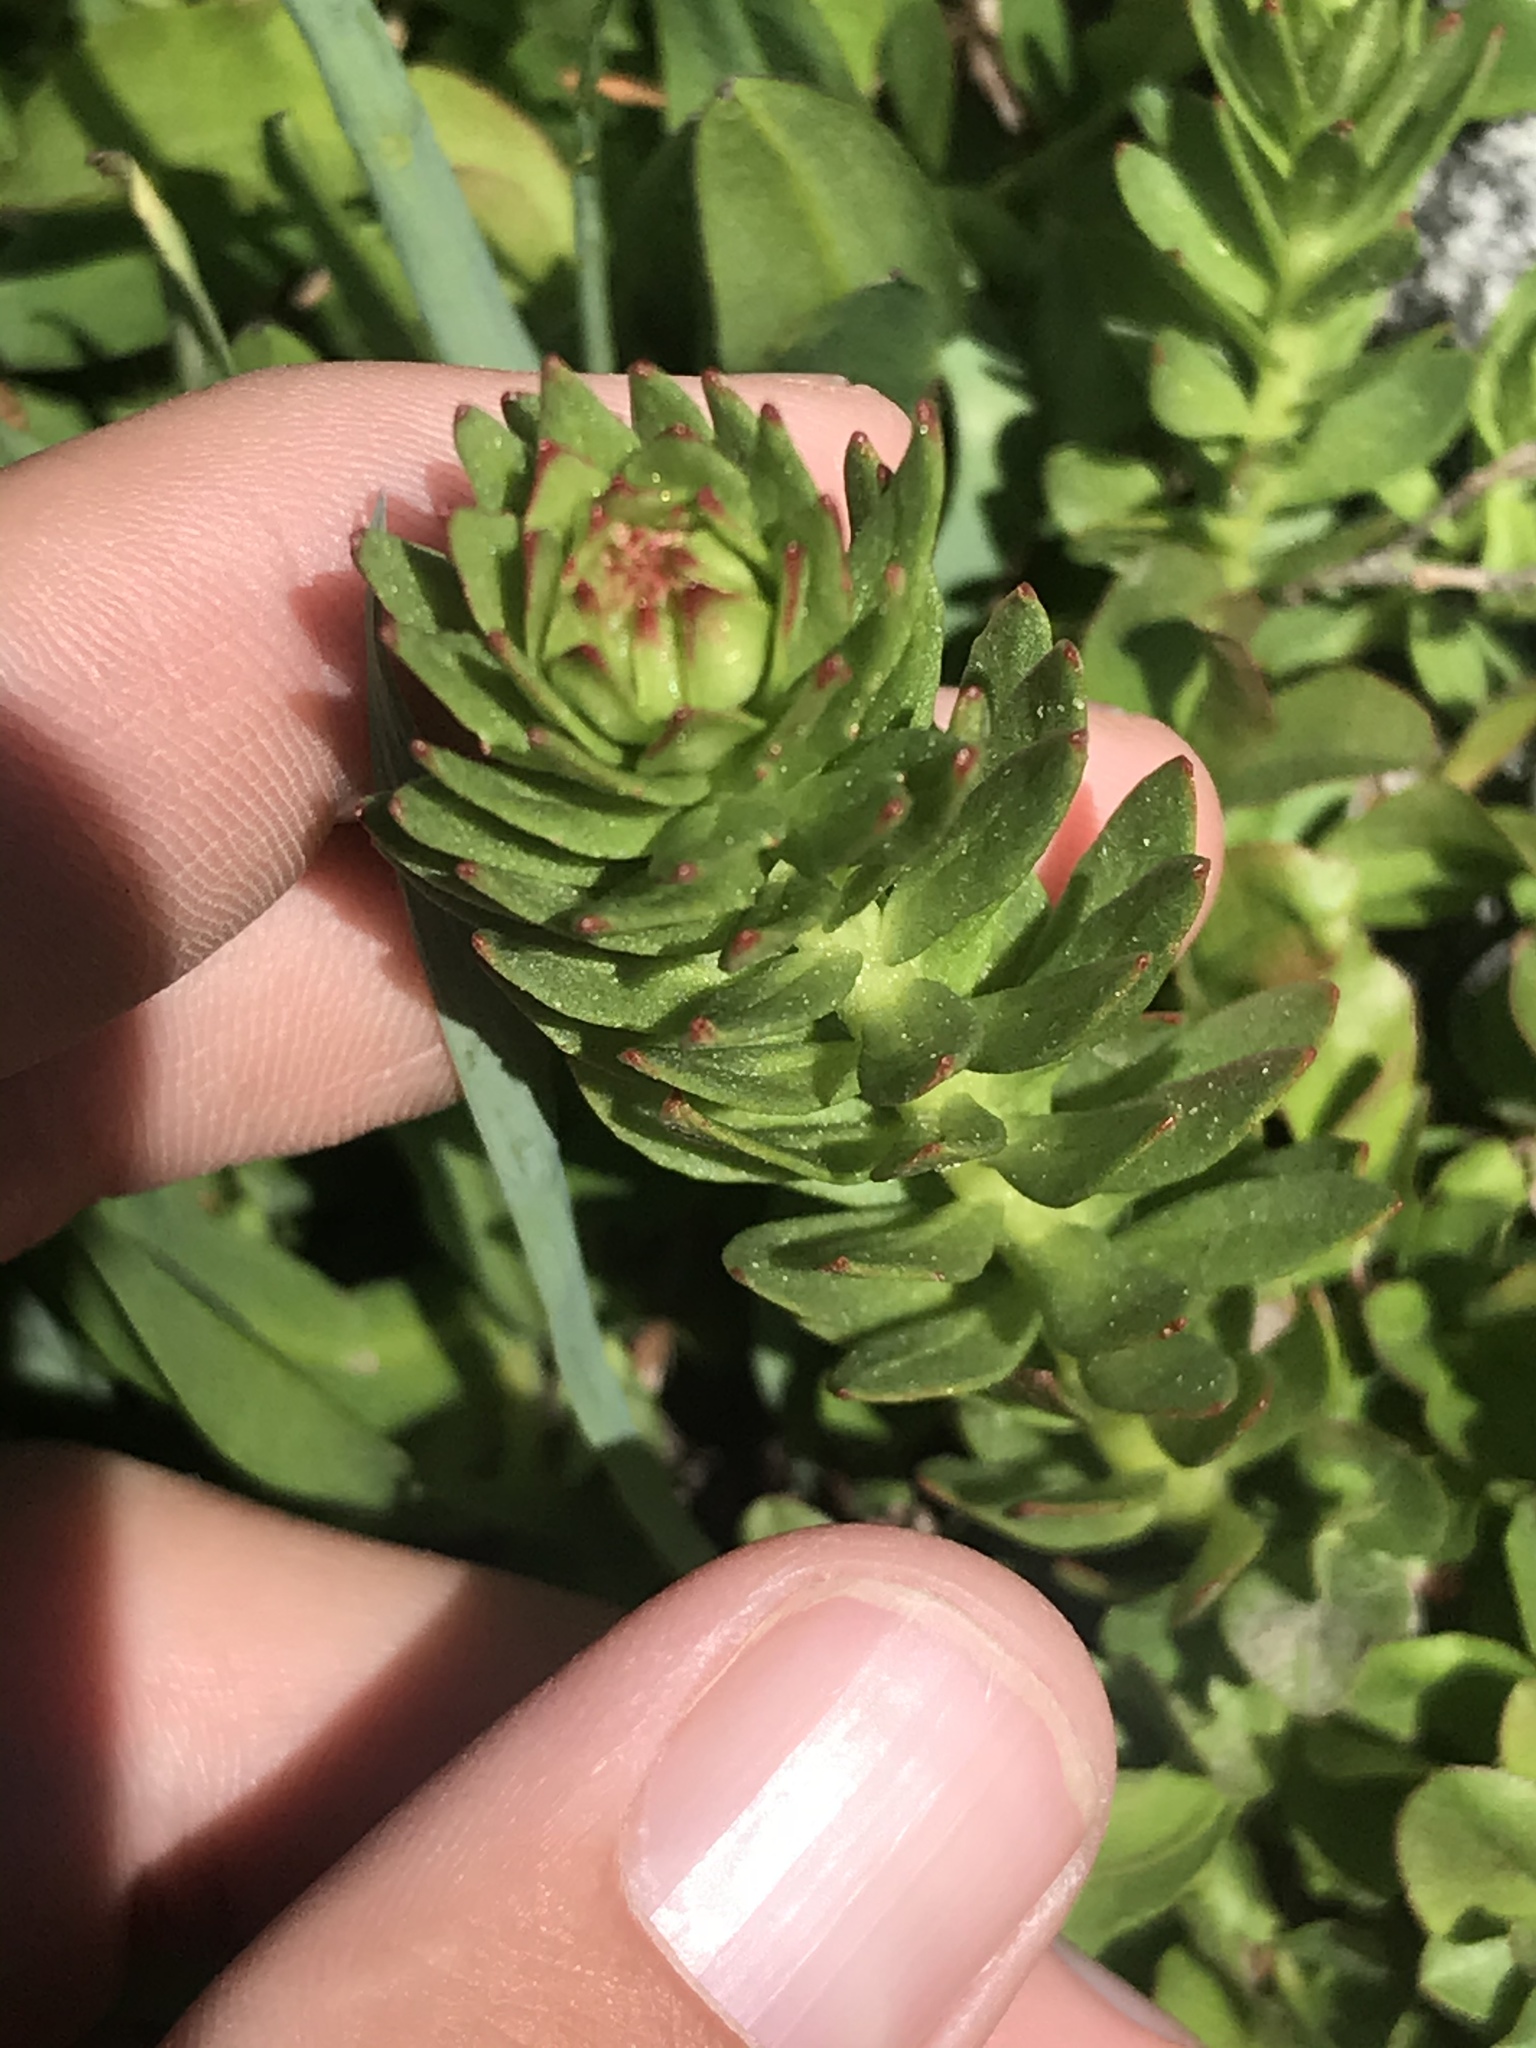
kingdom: Plantae
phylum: Tracheophyta
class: Magnoliopsida
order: Saxifragales
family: Crassulaceae
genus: Rhodiola
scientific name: Rhodiola rhodantha
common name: Red orpine
